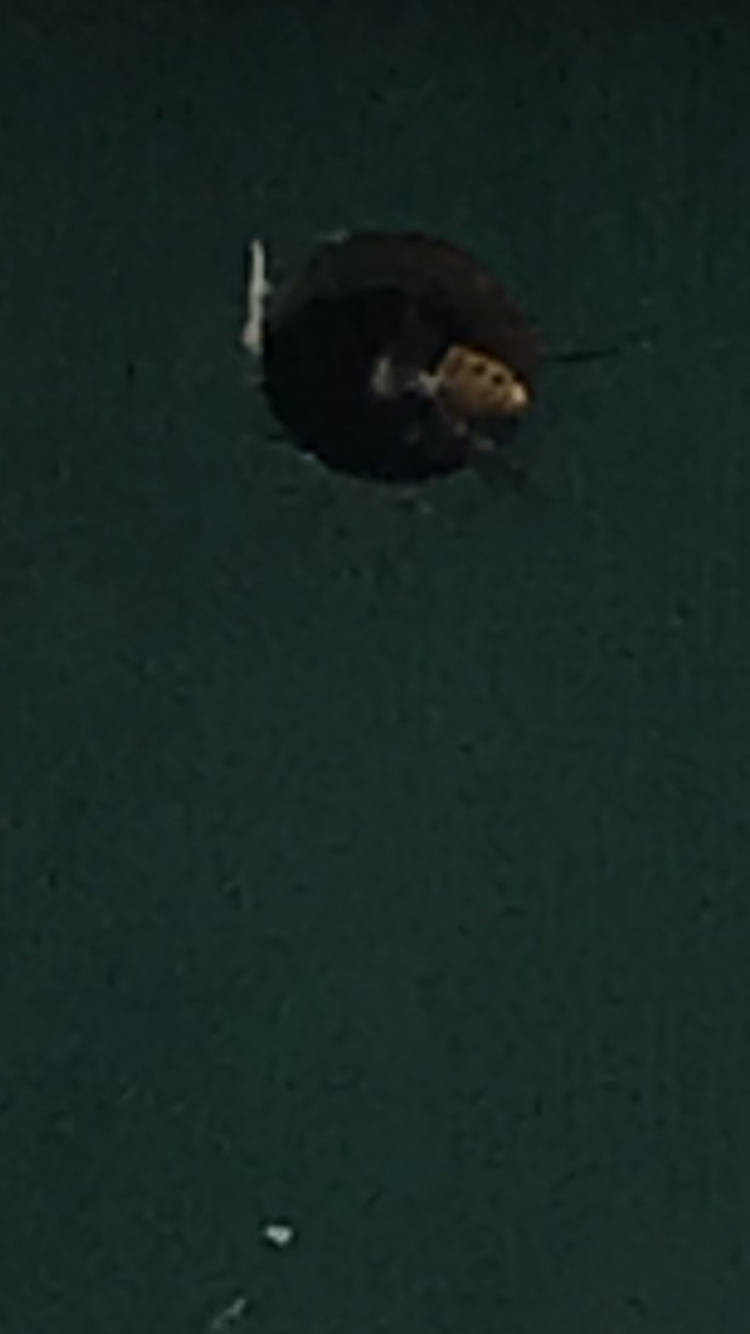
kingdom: Animalia
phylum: Arthropoda
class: Insecta
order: Hymenoptera
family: Vespidae
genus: Vespa
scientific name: Vespa crabro
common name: Hornet
